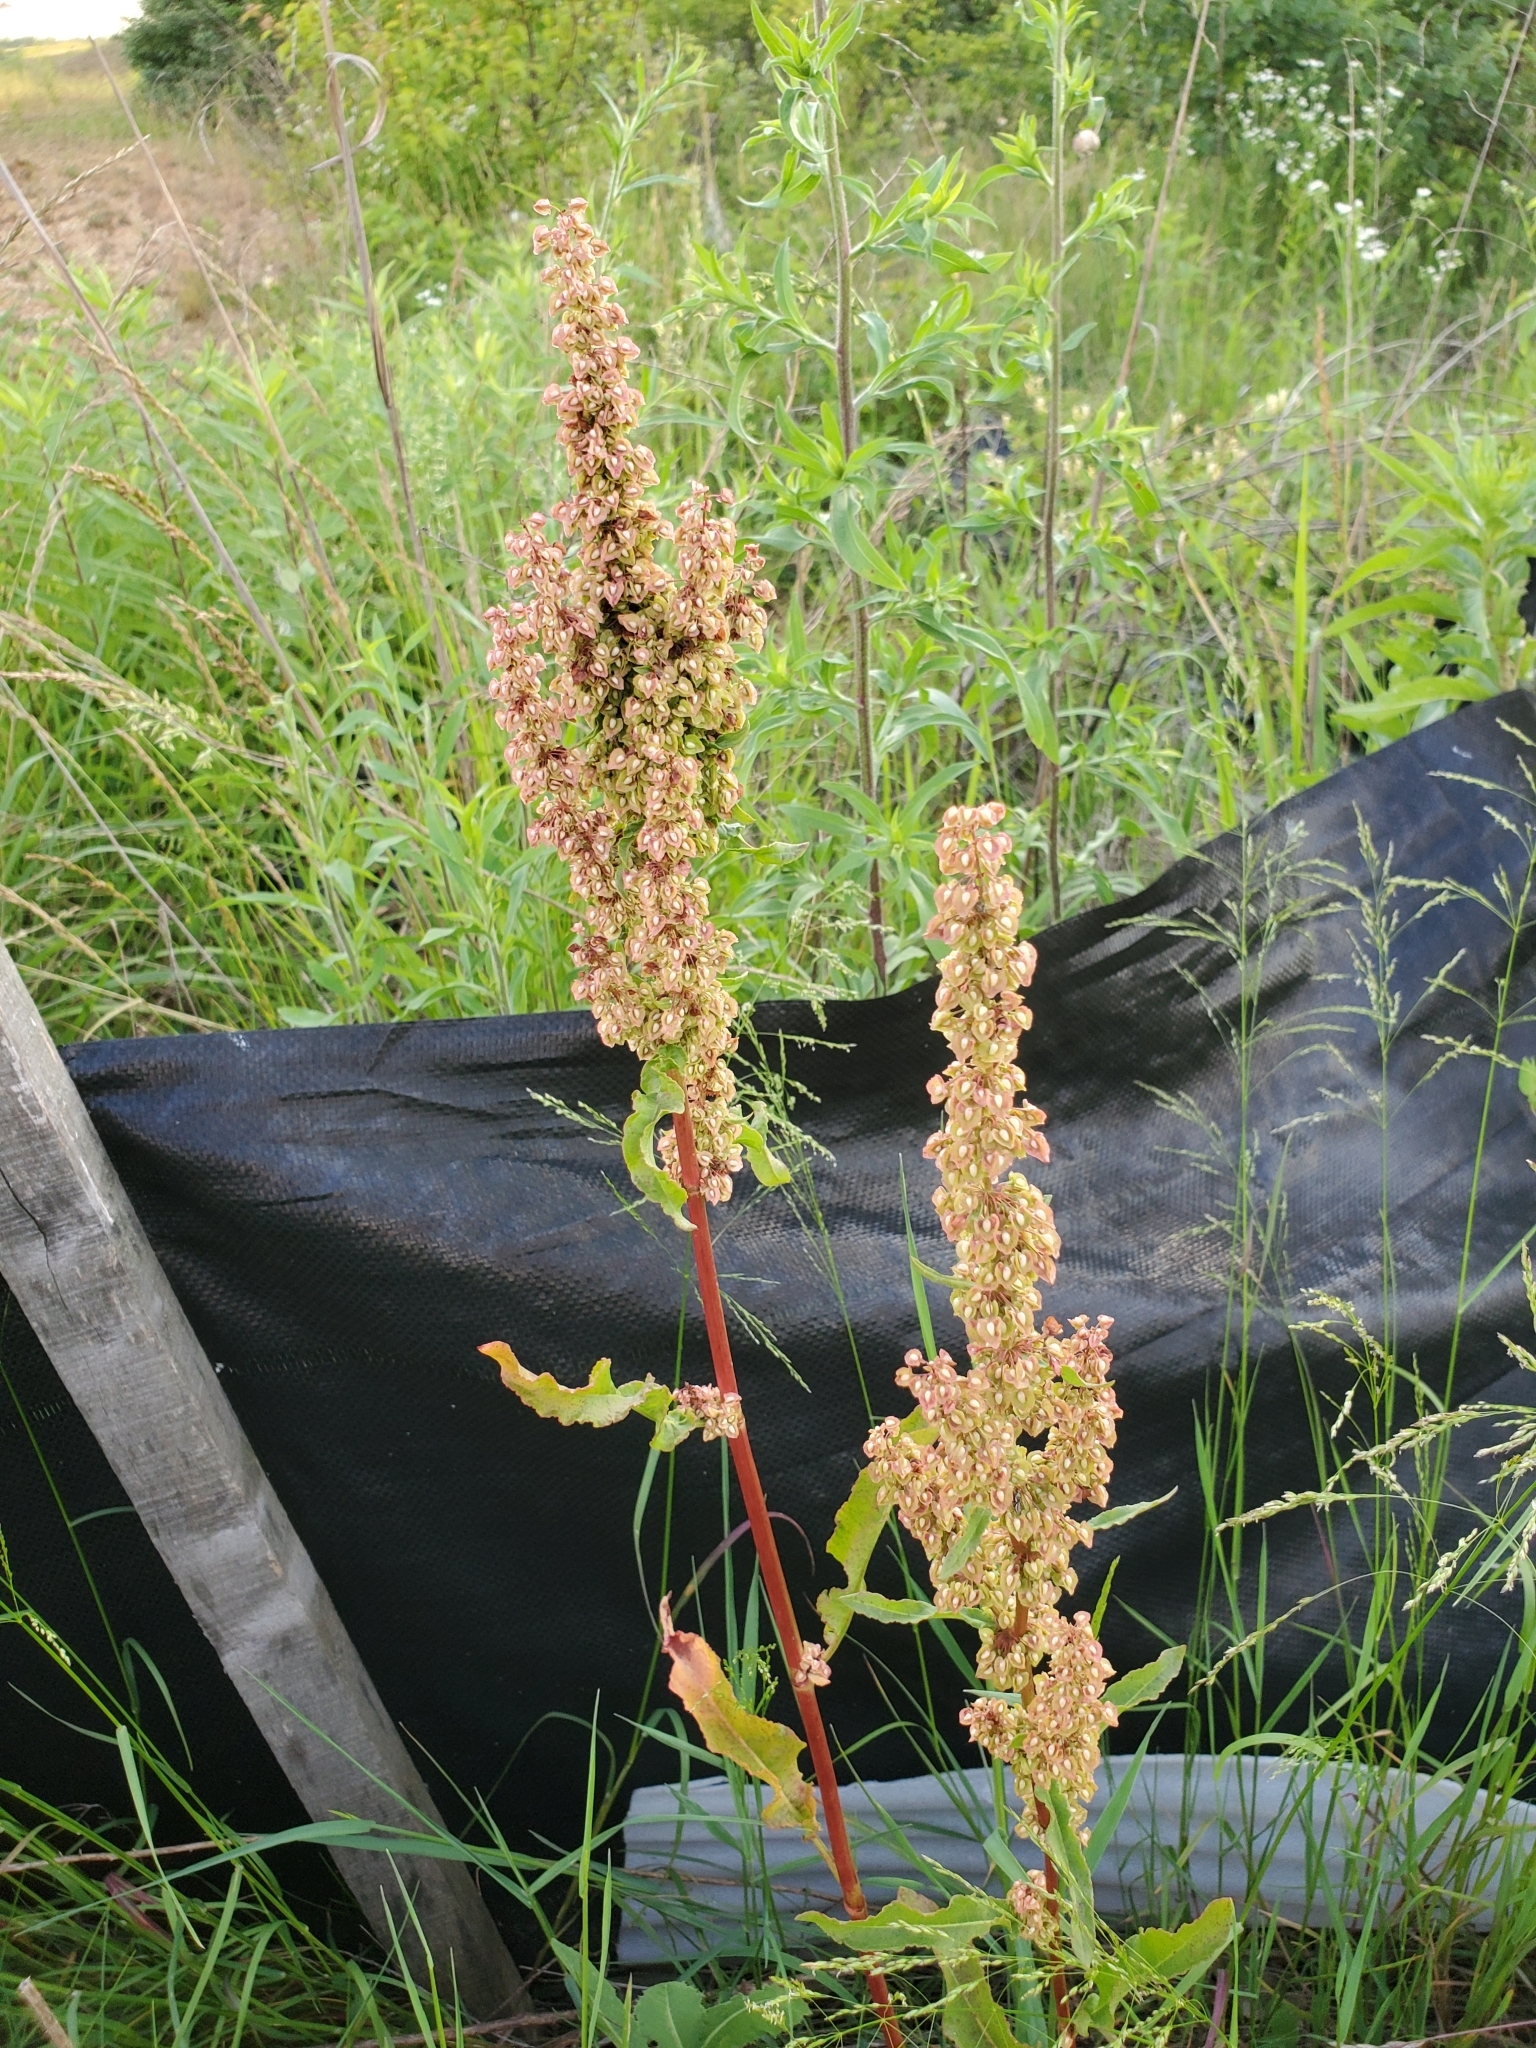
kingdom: Plantae
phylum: Tracheophyta
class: Magnoliopsida
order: Caryophyllales
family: Polygonaceae
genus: Rumex
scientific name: Rumex crispus
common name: Curled dock
